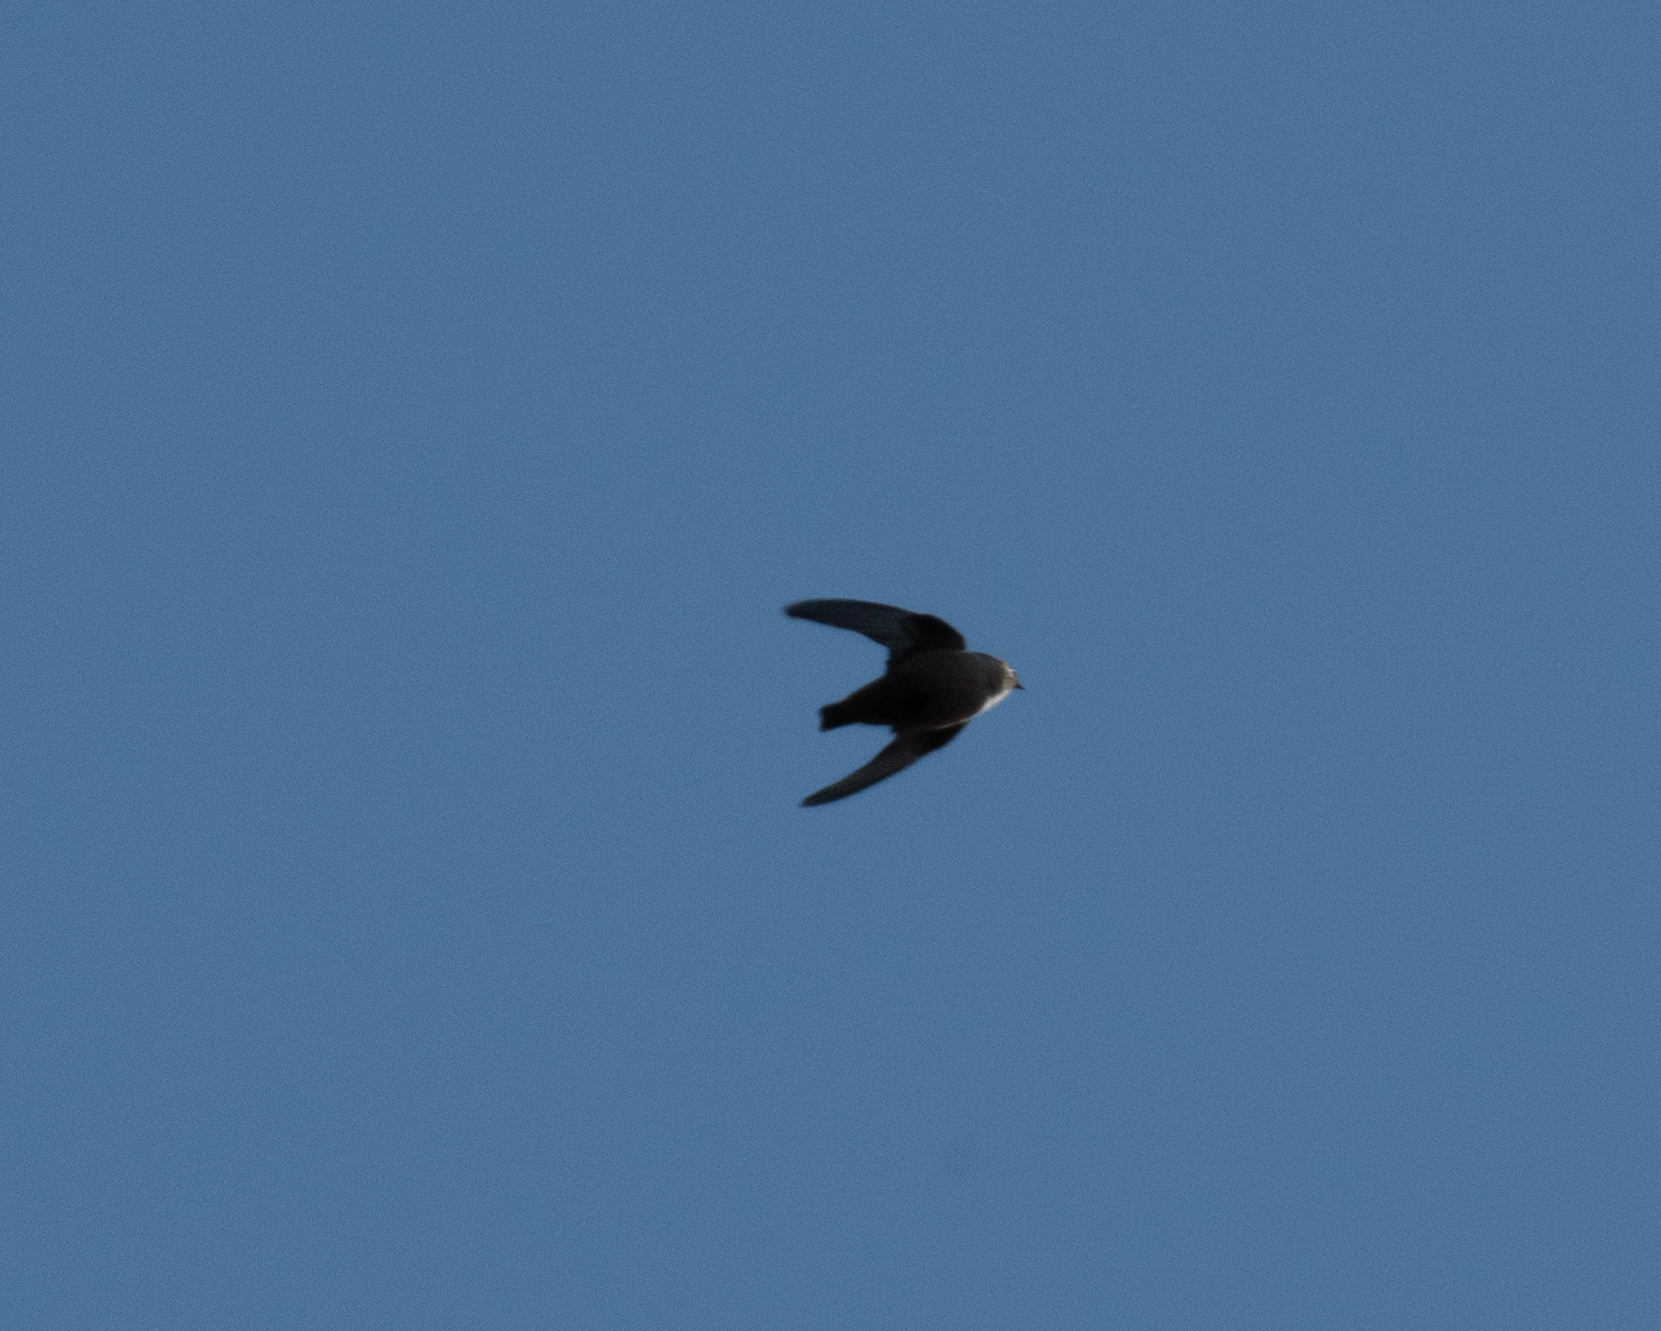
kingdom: Animalia
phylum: Chordata
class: Aves
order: Passeriformes
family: Hirundinidae
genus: Ptyonoprogne
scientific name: Ptyonoprogne rupestris
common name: Eurasian crag martin
